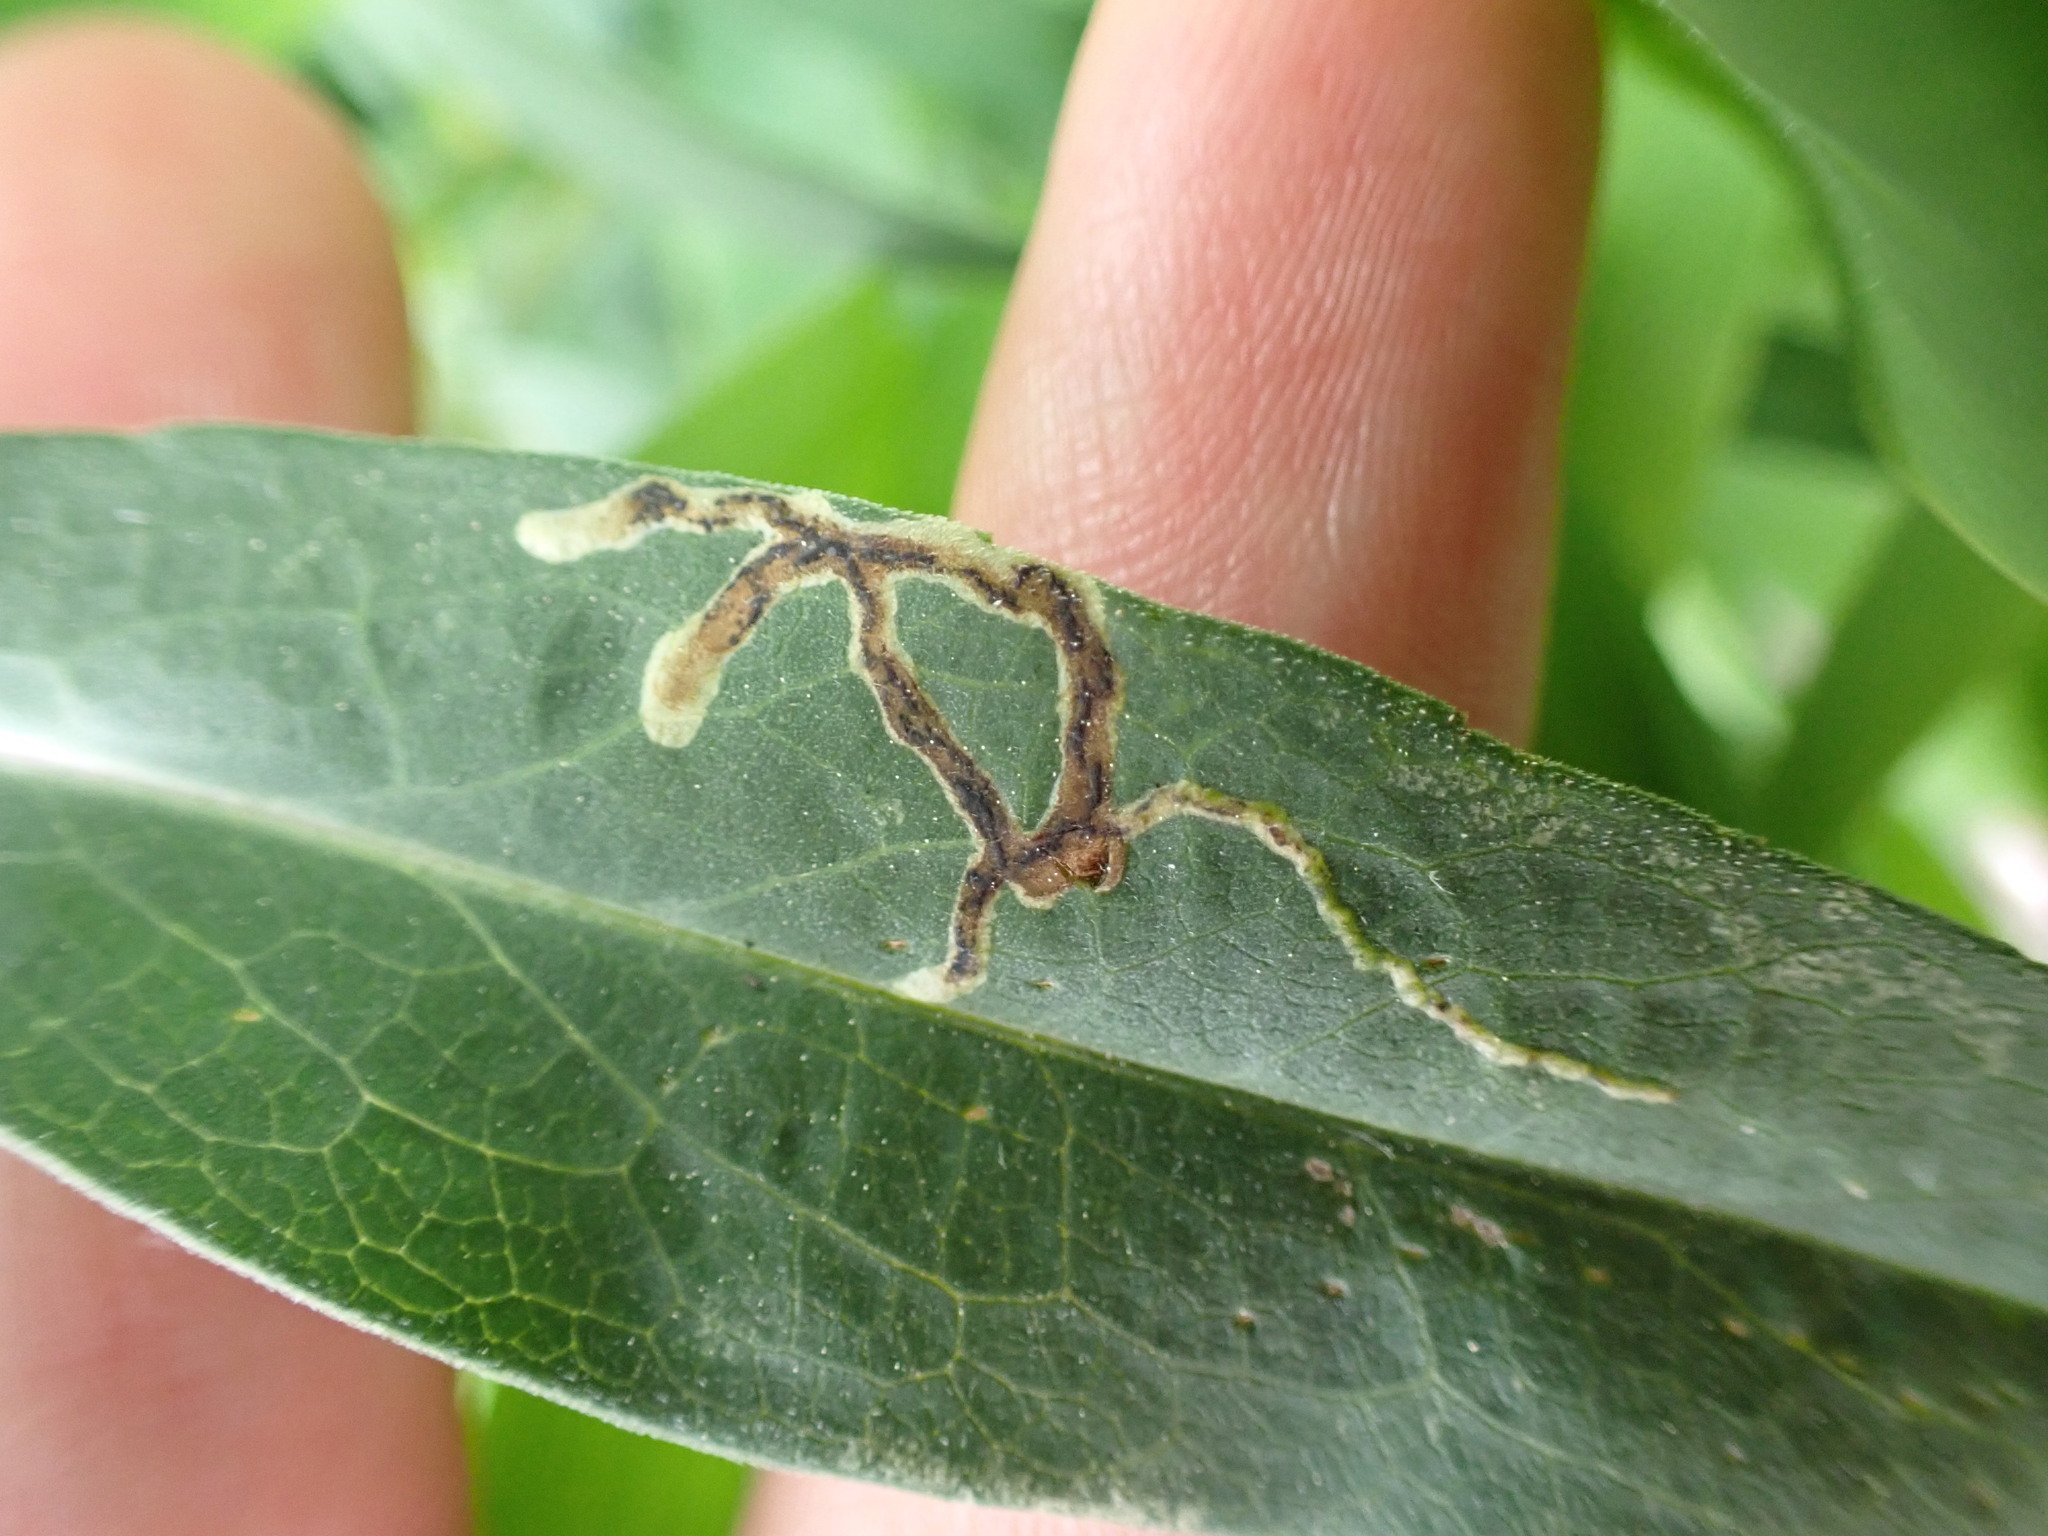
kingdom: Animalia
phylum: Arthropoda
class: Insecta
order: Diptera
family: Agromyzidae
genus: Liriomyza
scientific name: Liriomyza eupatorii
